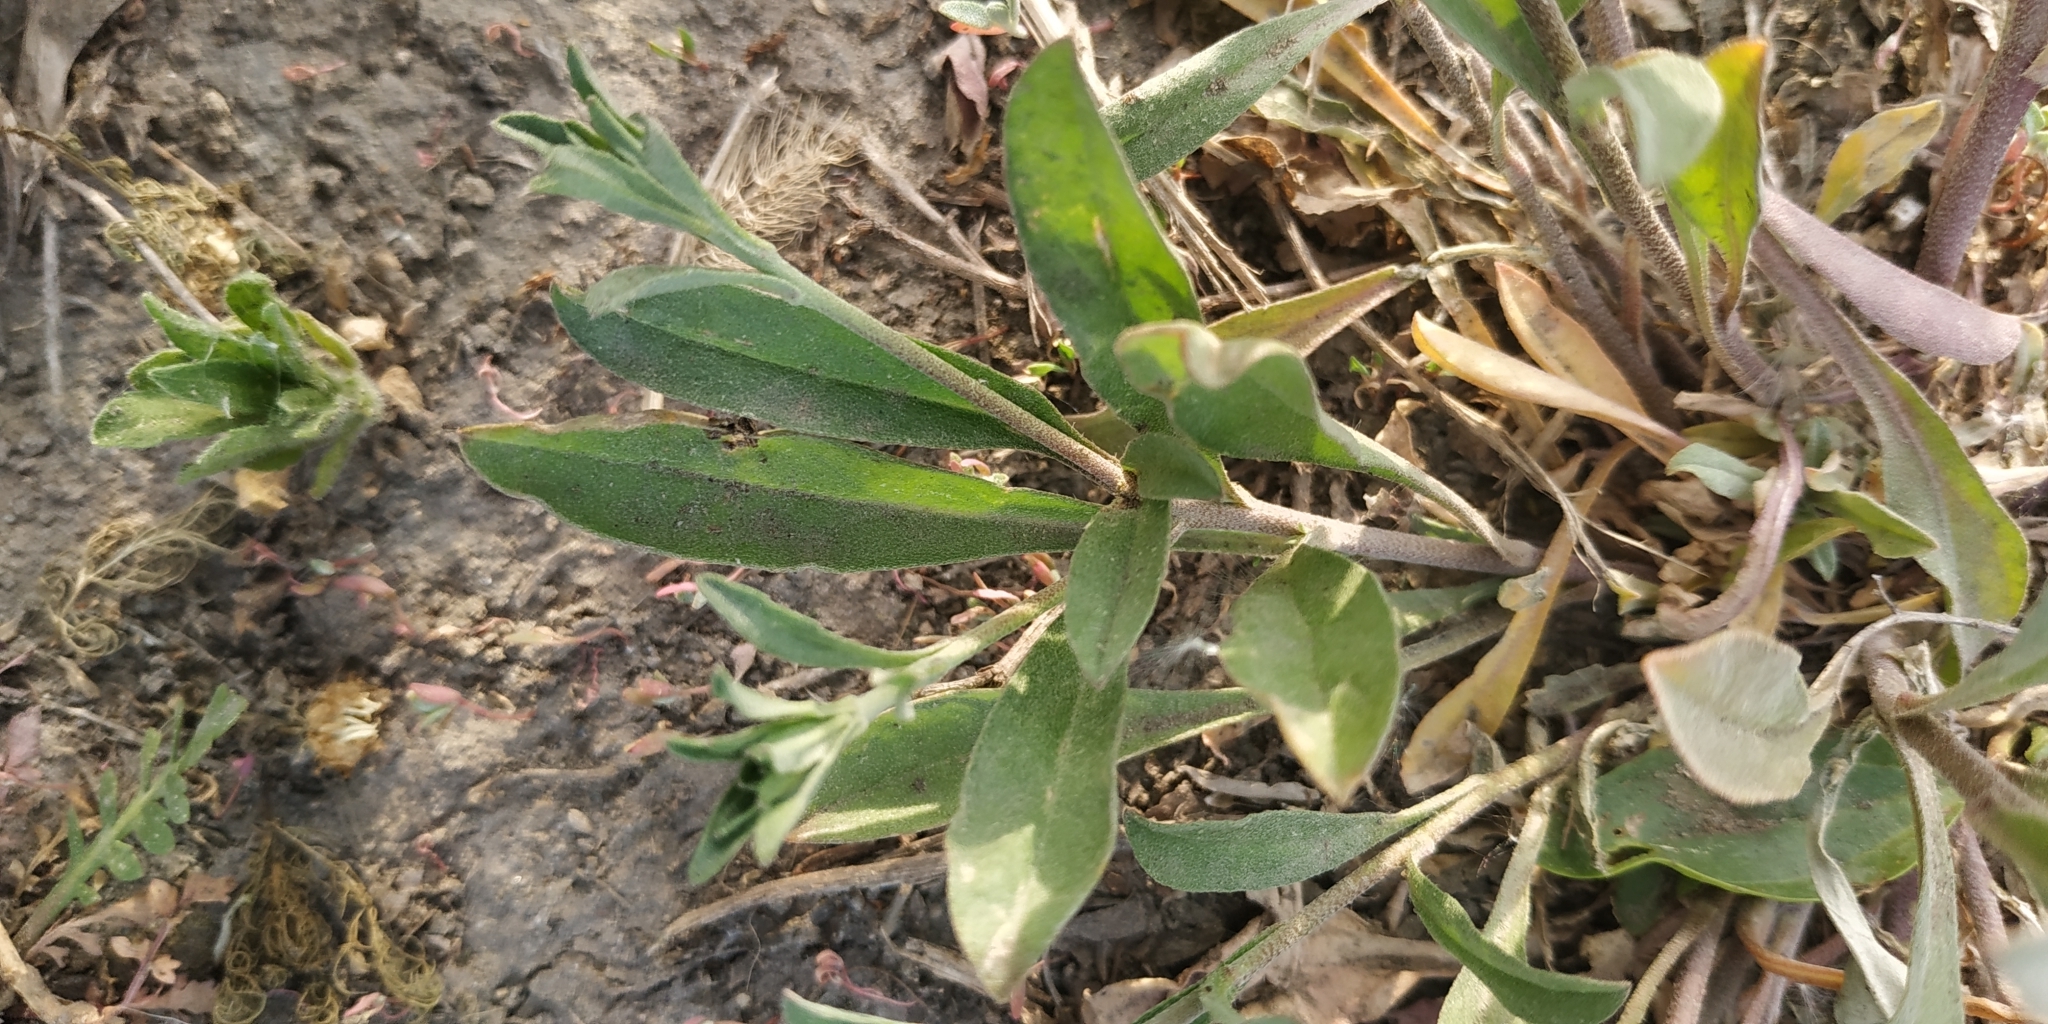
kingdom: Plantae
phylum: Tracheophyta
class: Magnoliopsida
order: Brassicales
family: Brassicaceae
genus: Berteroa
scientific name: Berteroa incana
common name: Hoary alison
